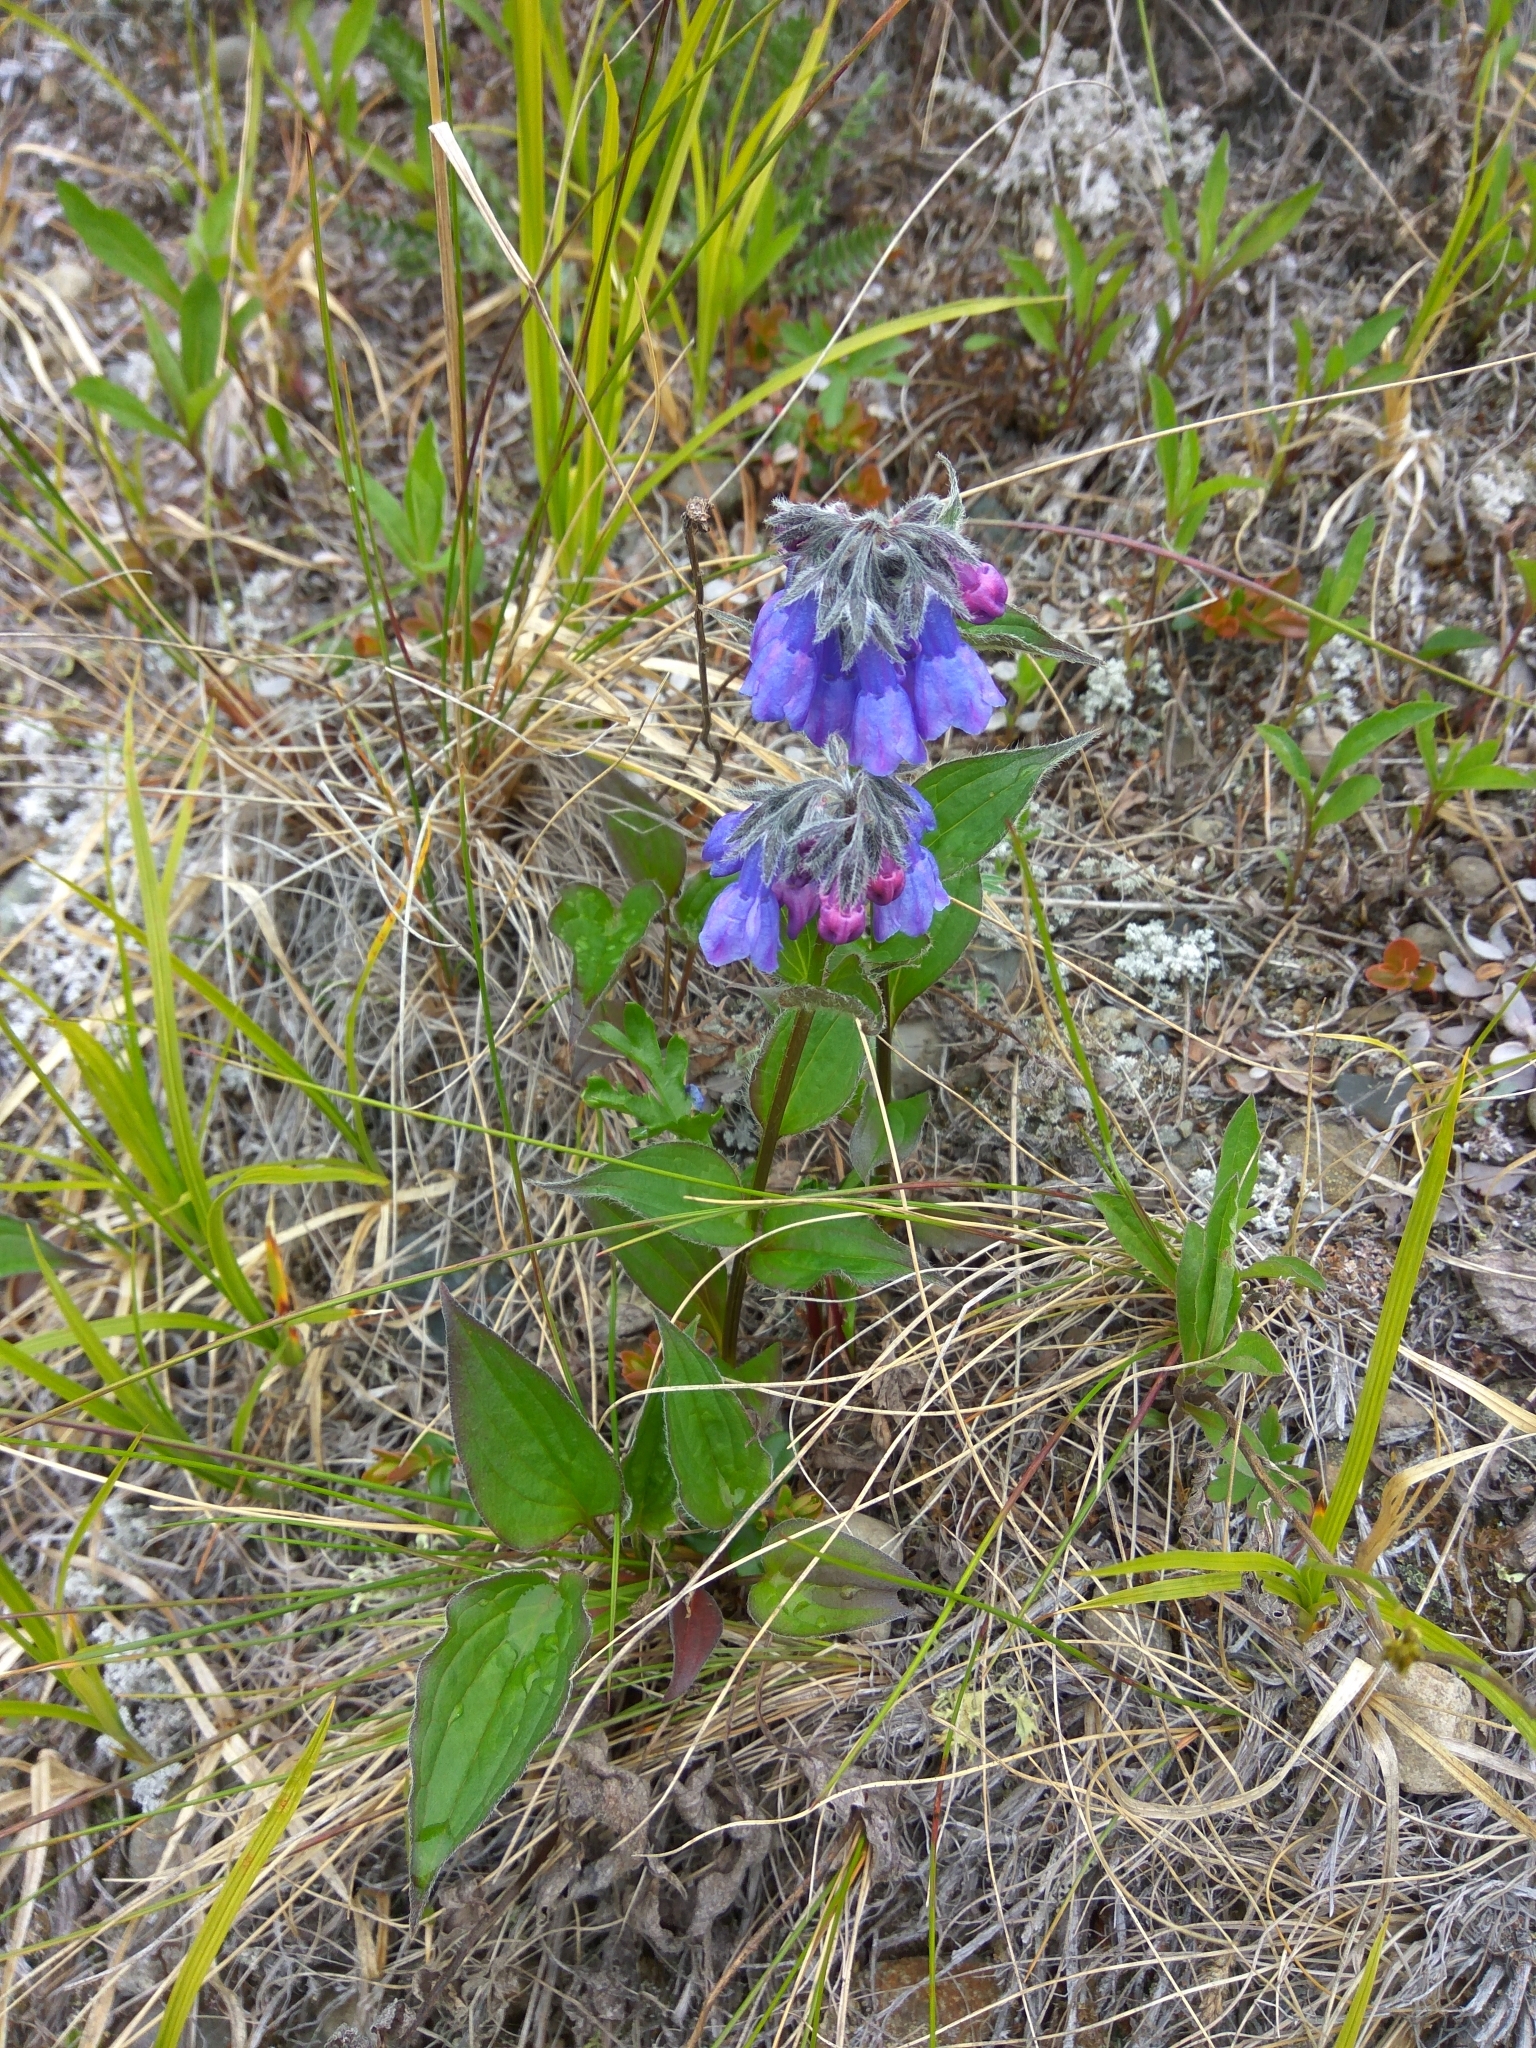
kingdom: Plantae
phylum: Tracheophyta
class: Magnoliopsida
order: Boraginales
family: Boraginaceae
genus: Mertensia
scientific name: Mertensia kamczatica
